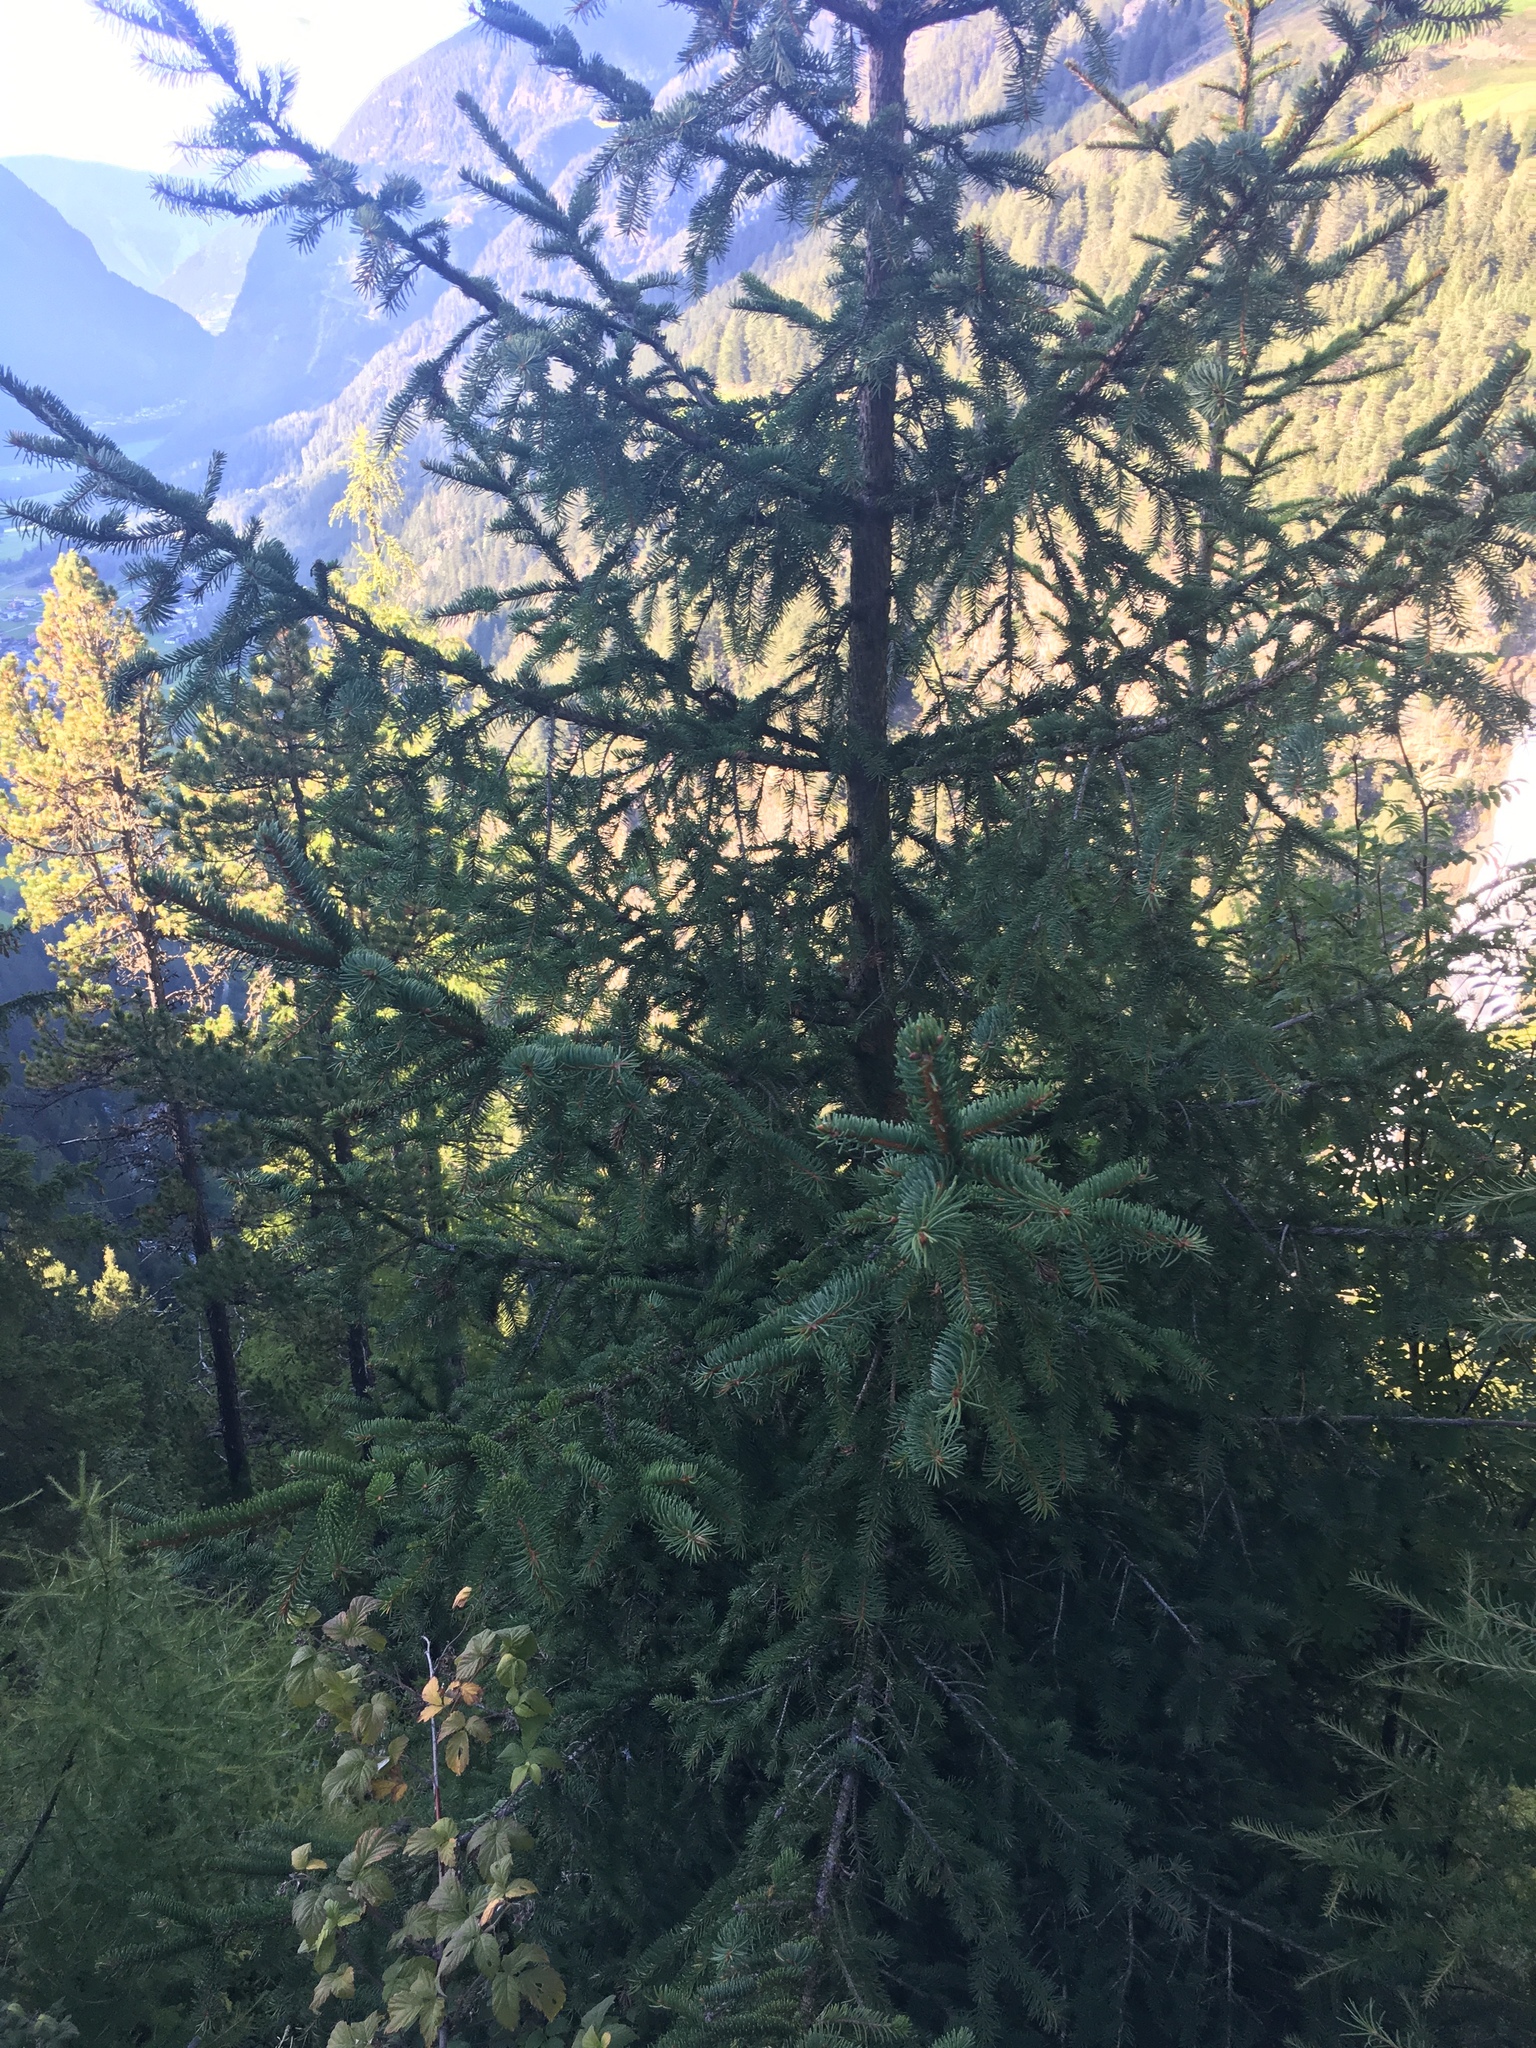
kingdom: Plantae
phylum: Tracheophyta
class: Pinopsida
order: Pinales
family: Pinaceae
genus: Picea
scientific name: Picea abies
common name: Norway spruce
